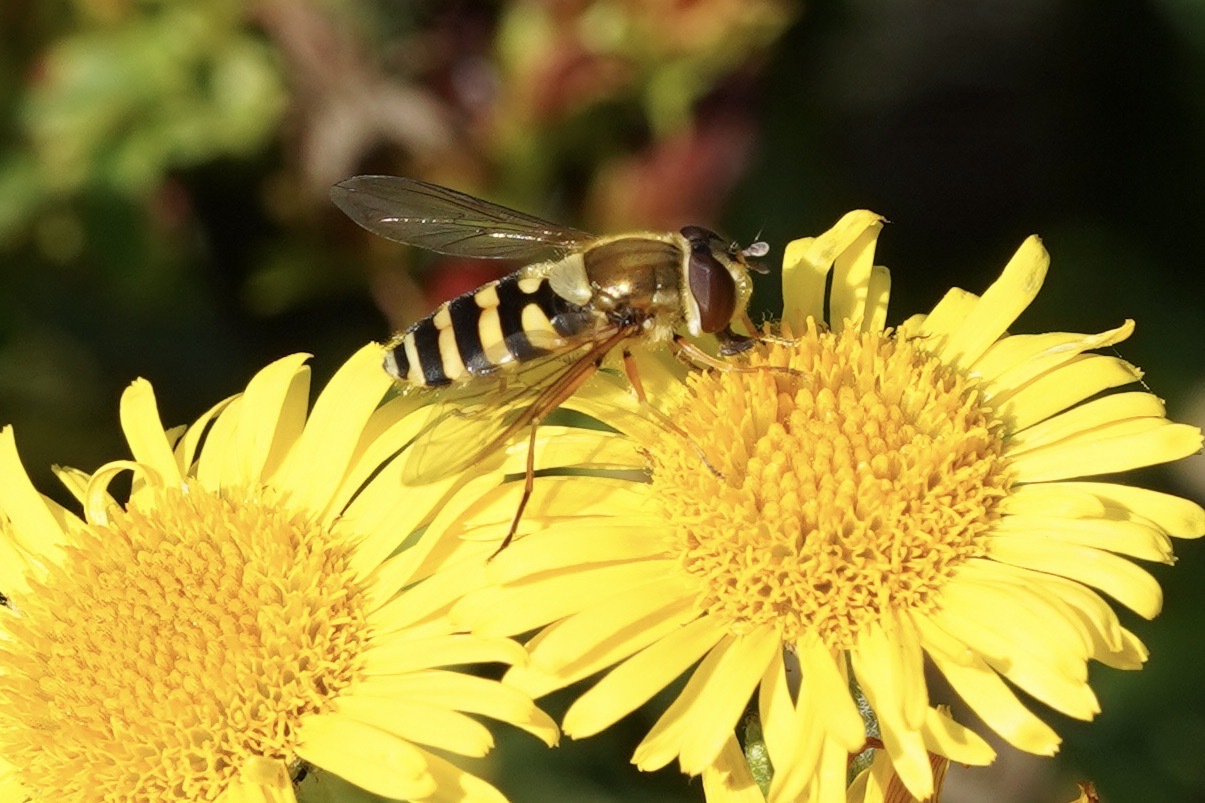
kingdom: Animalia
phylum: Arthropoda
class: Insecta
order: Diptera
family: Syrphidae
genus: Syrphus
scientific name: Syrphus ribesii
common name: Common flower fly
